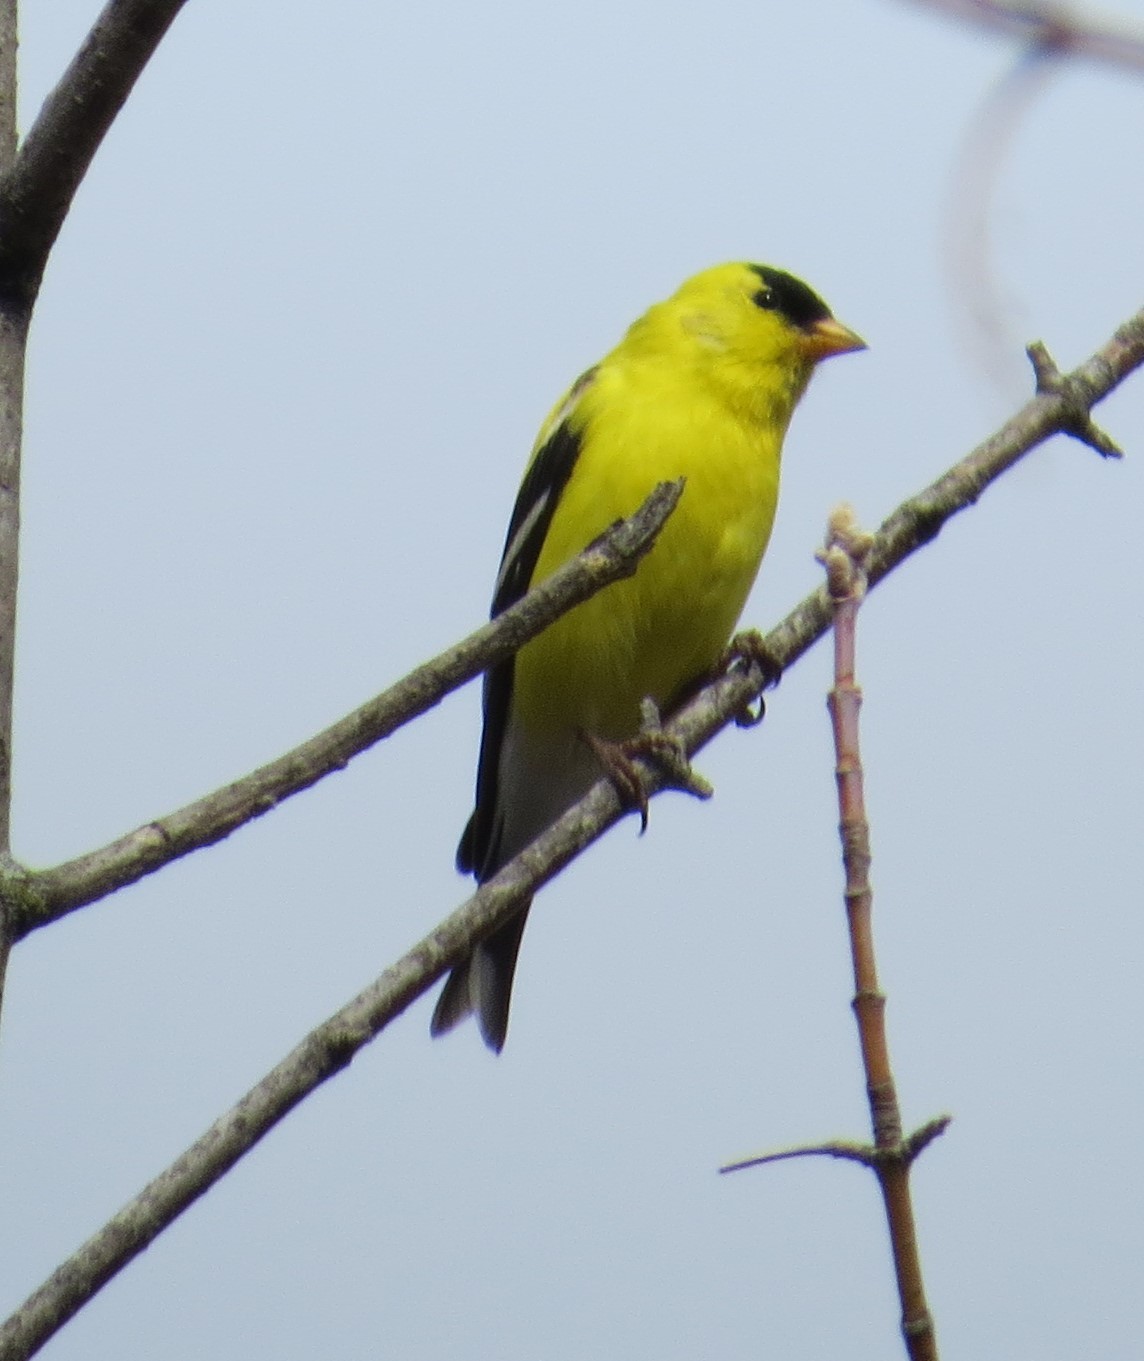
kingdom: Animalia
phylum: Chordata
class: Aves
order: Passeriformes
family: Fringillidae
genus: Spinus
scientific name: Spinus tristis
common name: American goldfinch
